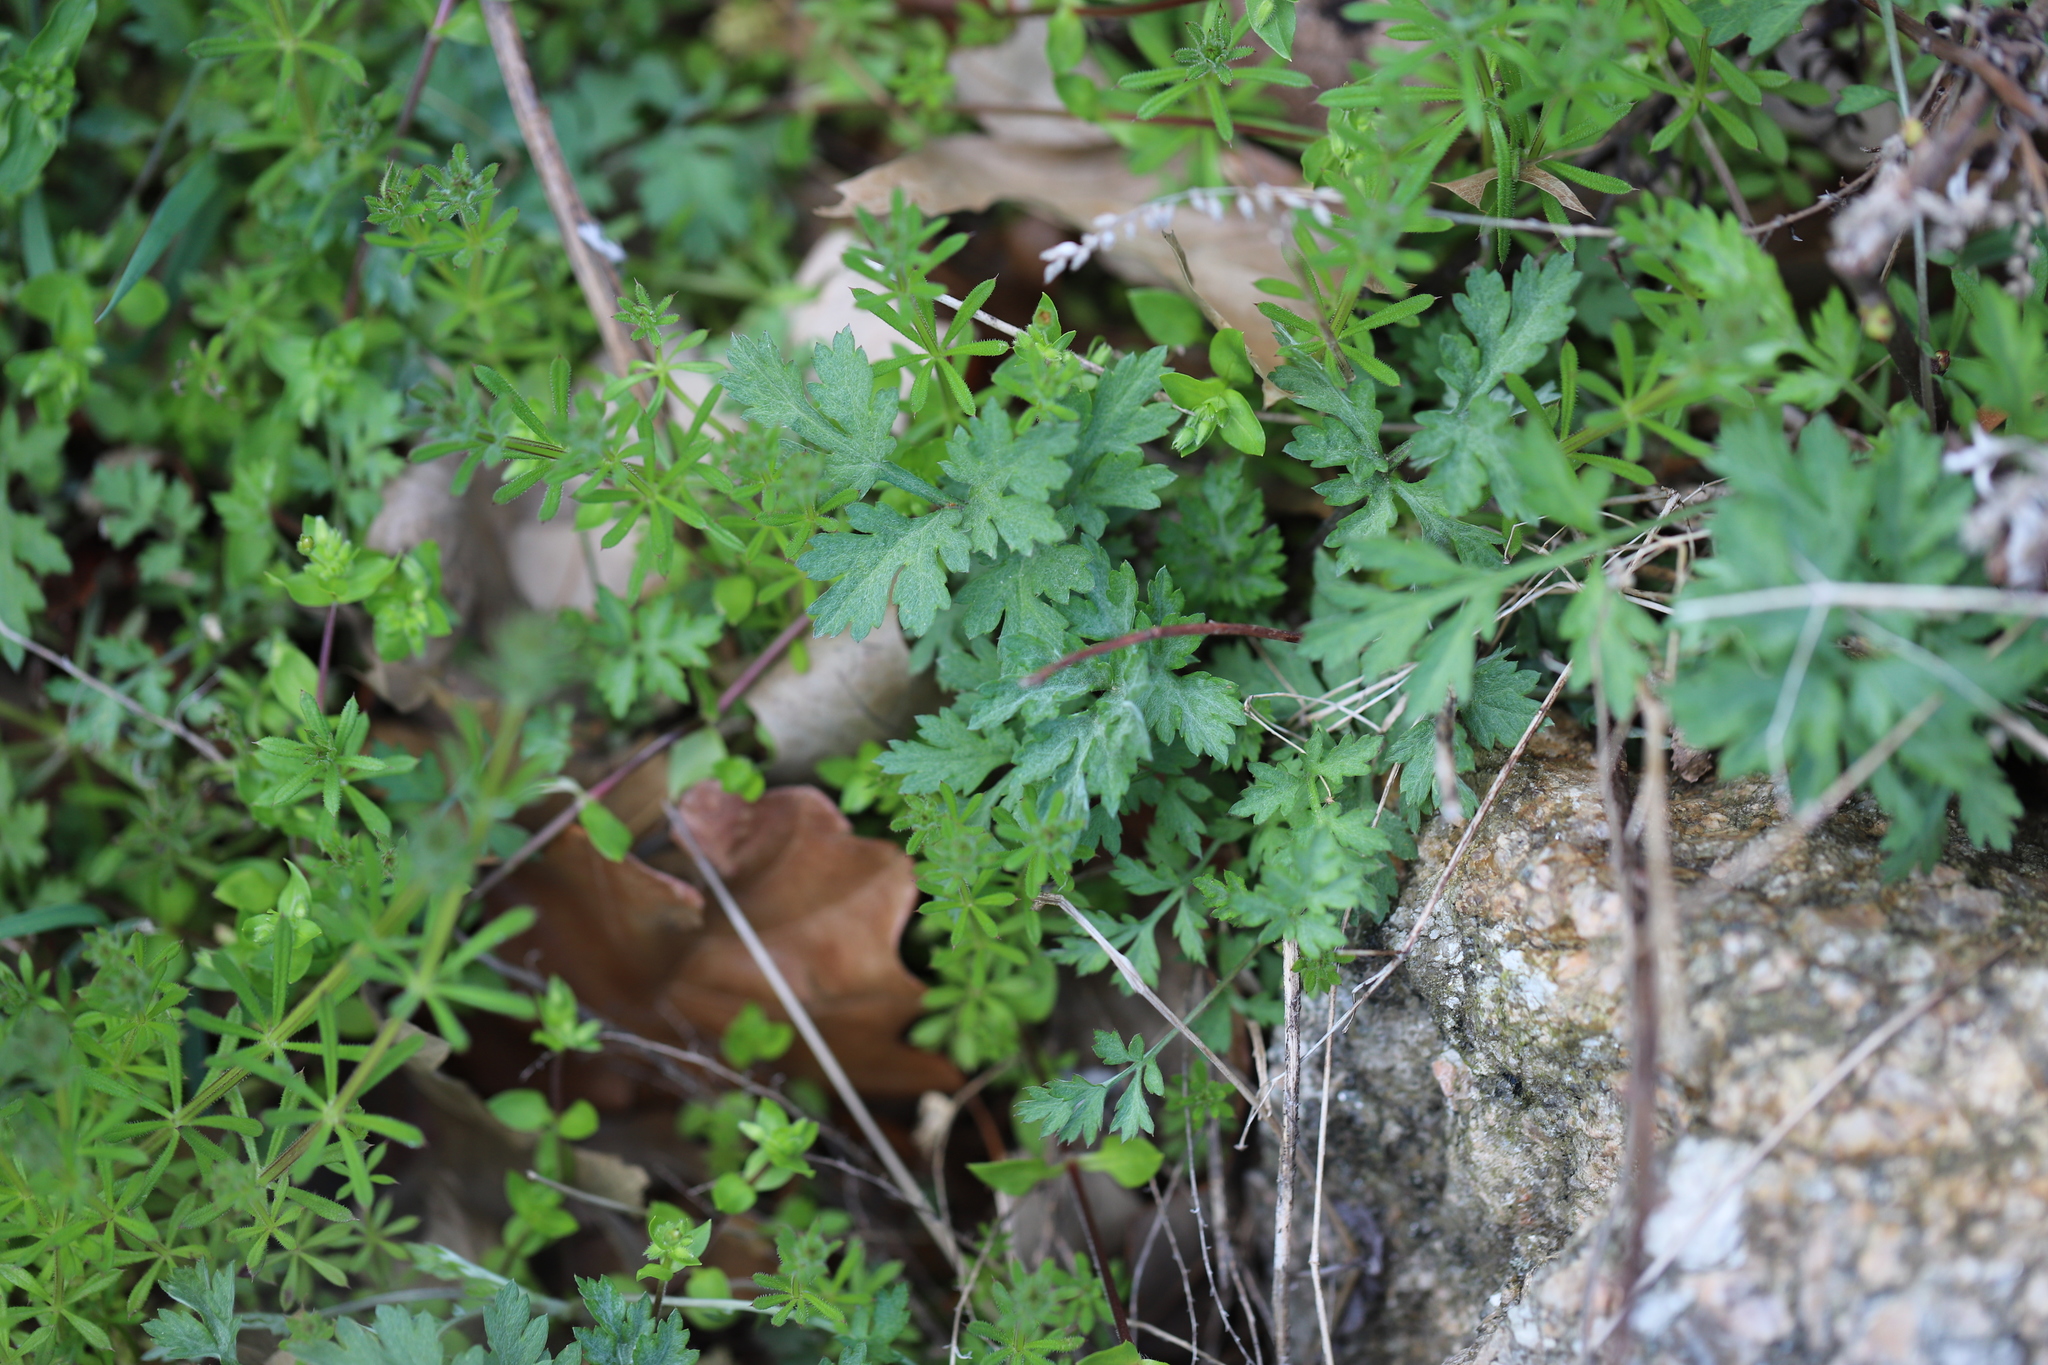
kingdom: Plantae
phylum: Tracheophyta
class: Magnoliopsida
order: Asterales
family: Asteraceae
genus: Artemisia
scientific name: Artemisia vulgaris
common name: Mugwort
